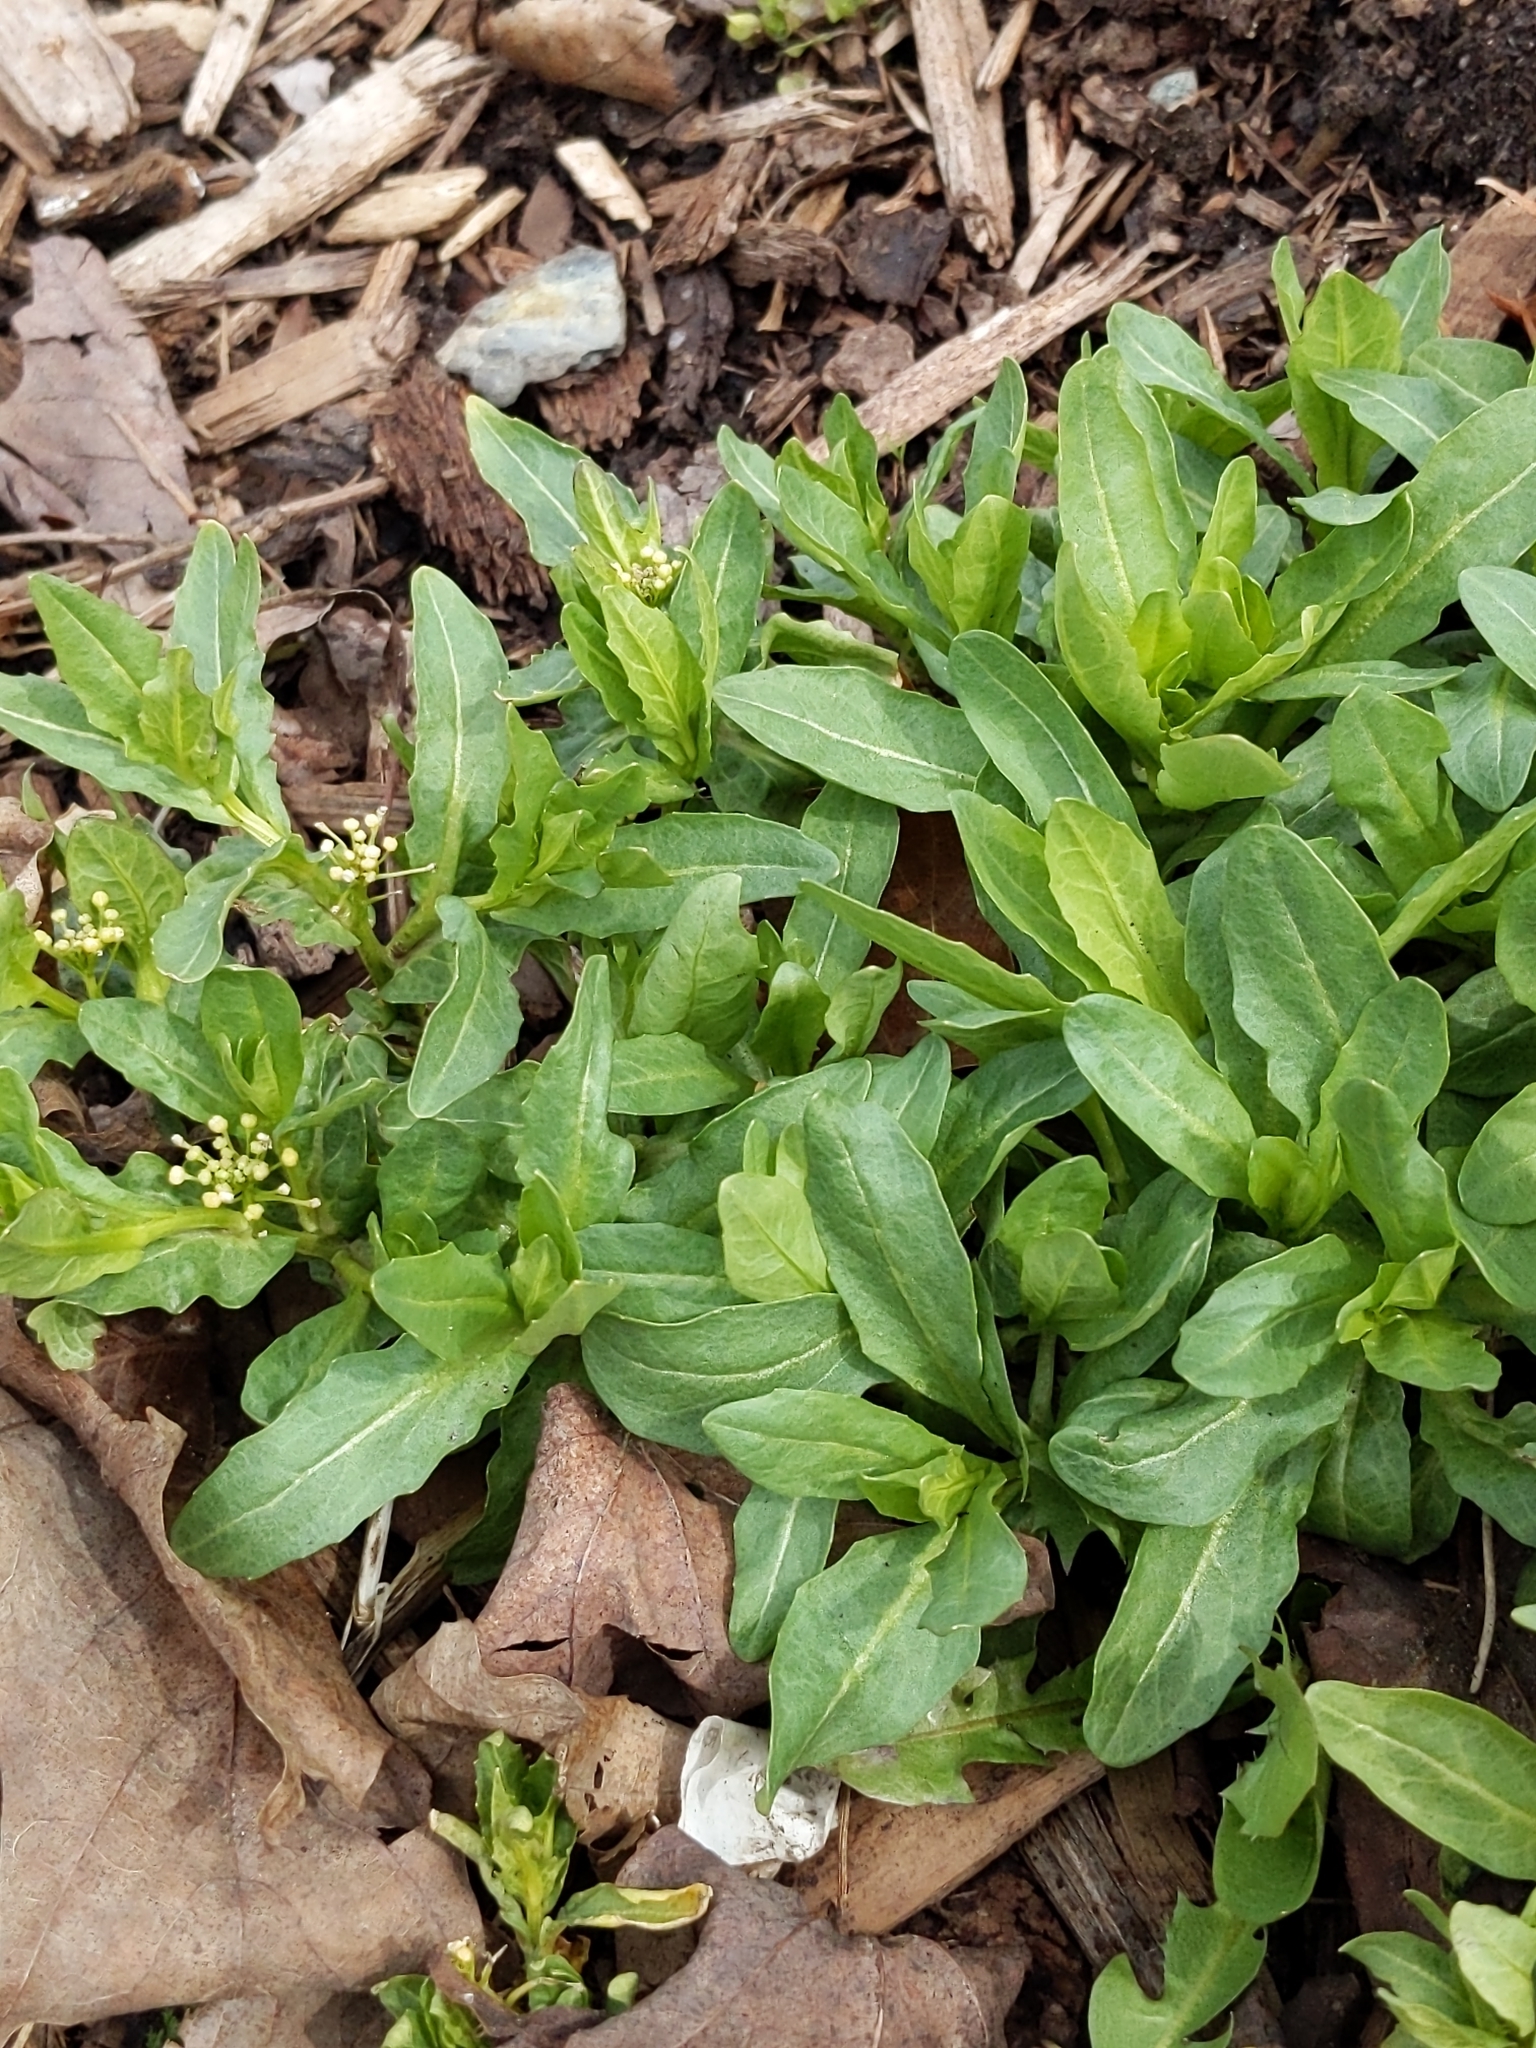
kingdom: Plantae
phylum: Tracheophyta
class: Magnoliopsida
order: Brassicales
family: Brassicaceae
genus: Thlaspi
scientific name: Thlaspi arvense
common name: Field pennycress
